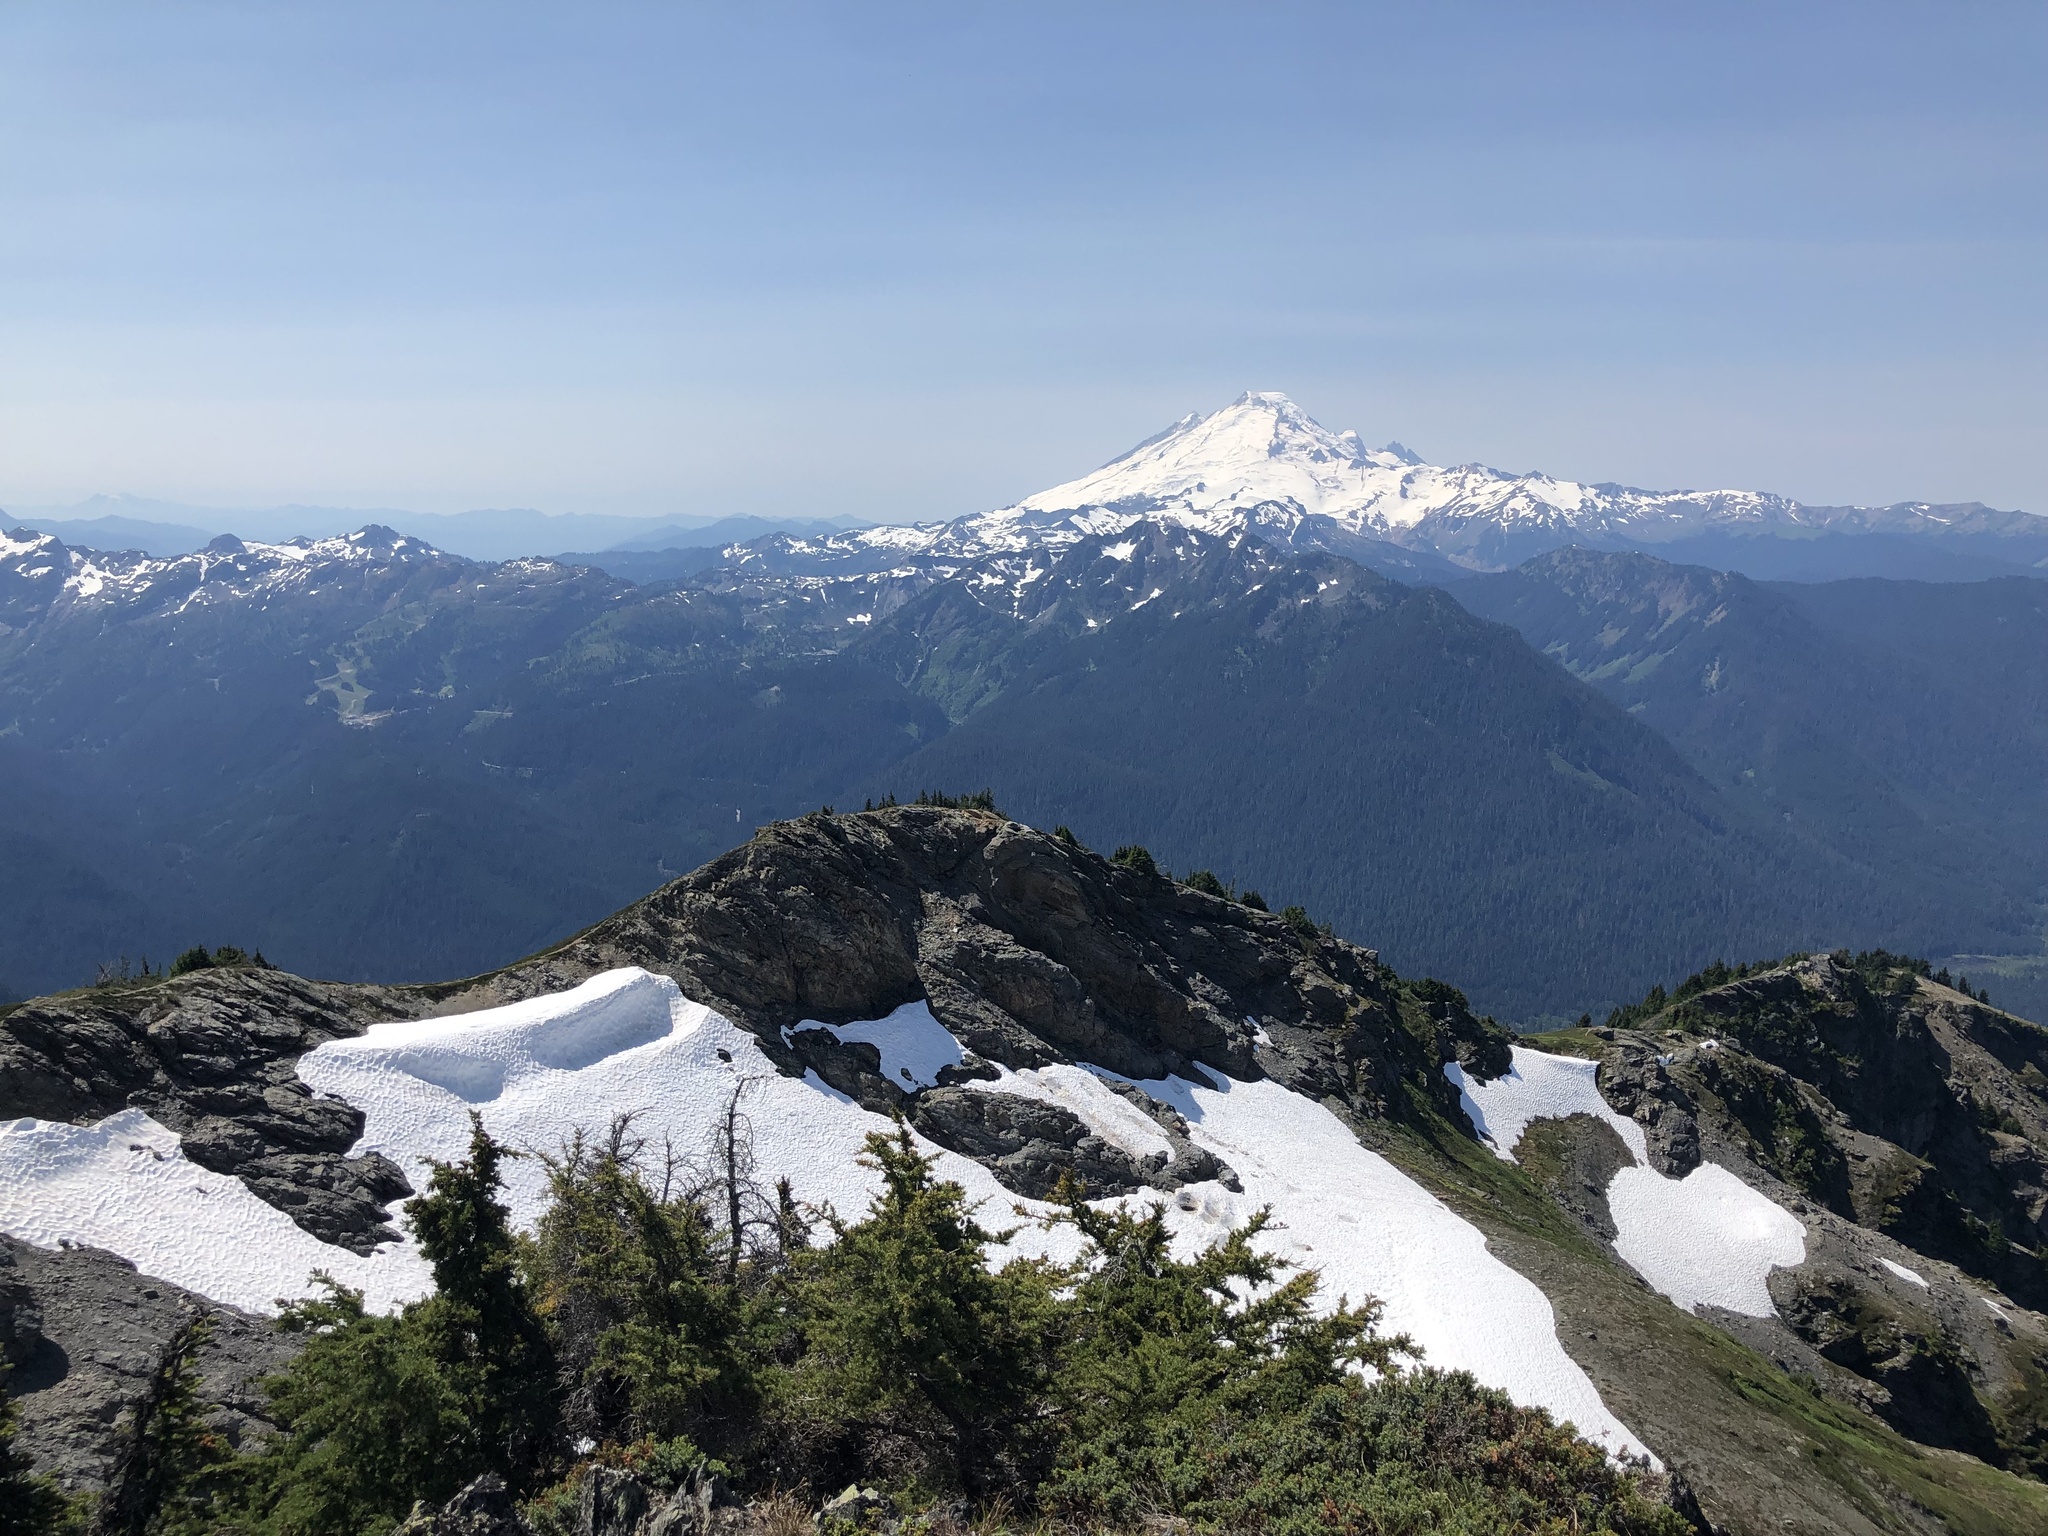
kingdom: Plantae
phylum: Tracheophyta
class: Pinopsida
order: Pinales
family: Pinaceae
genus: Tsuga
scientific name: Tsuga mertensiana
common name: Mountain hemlock
